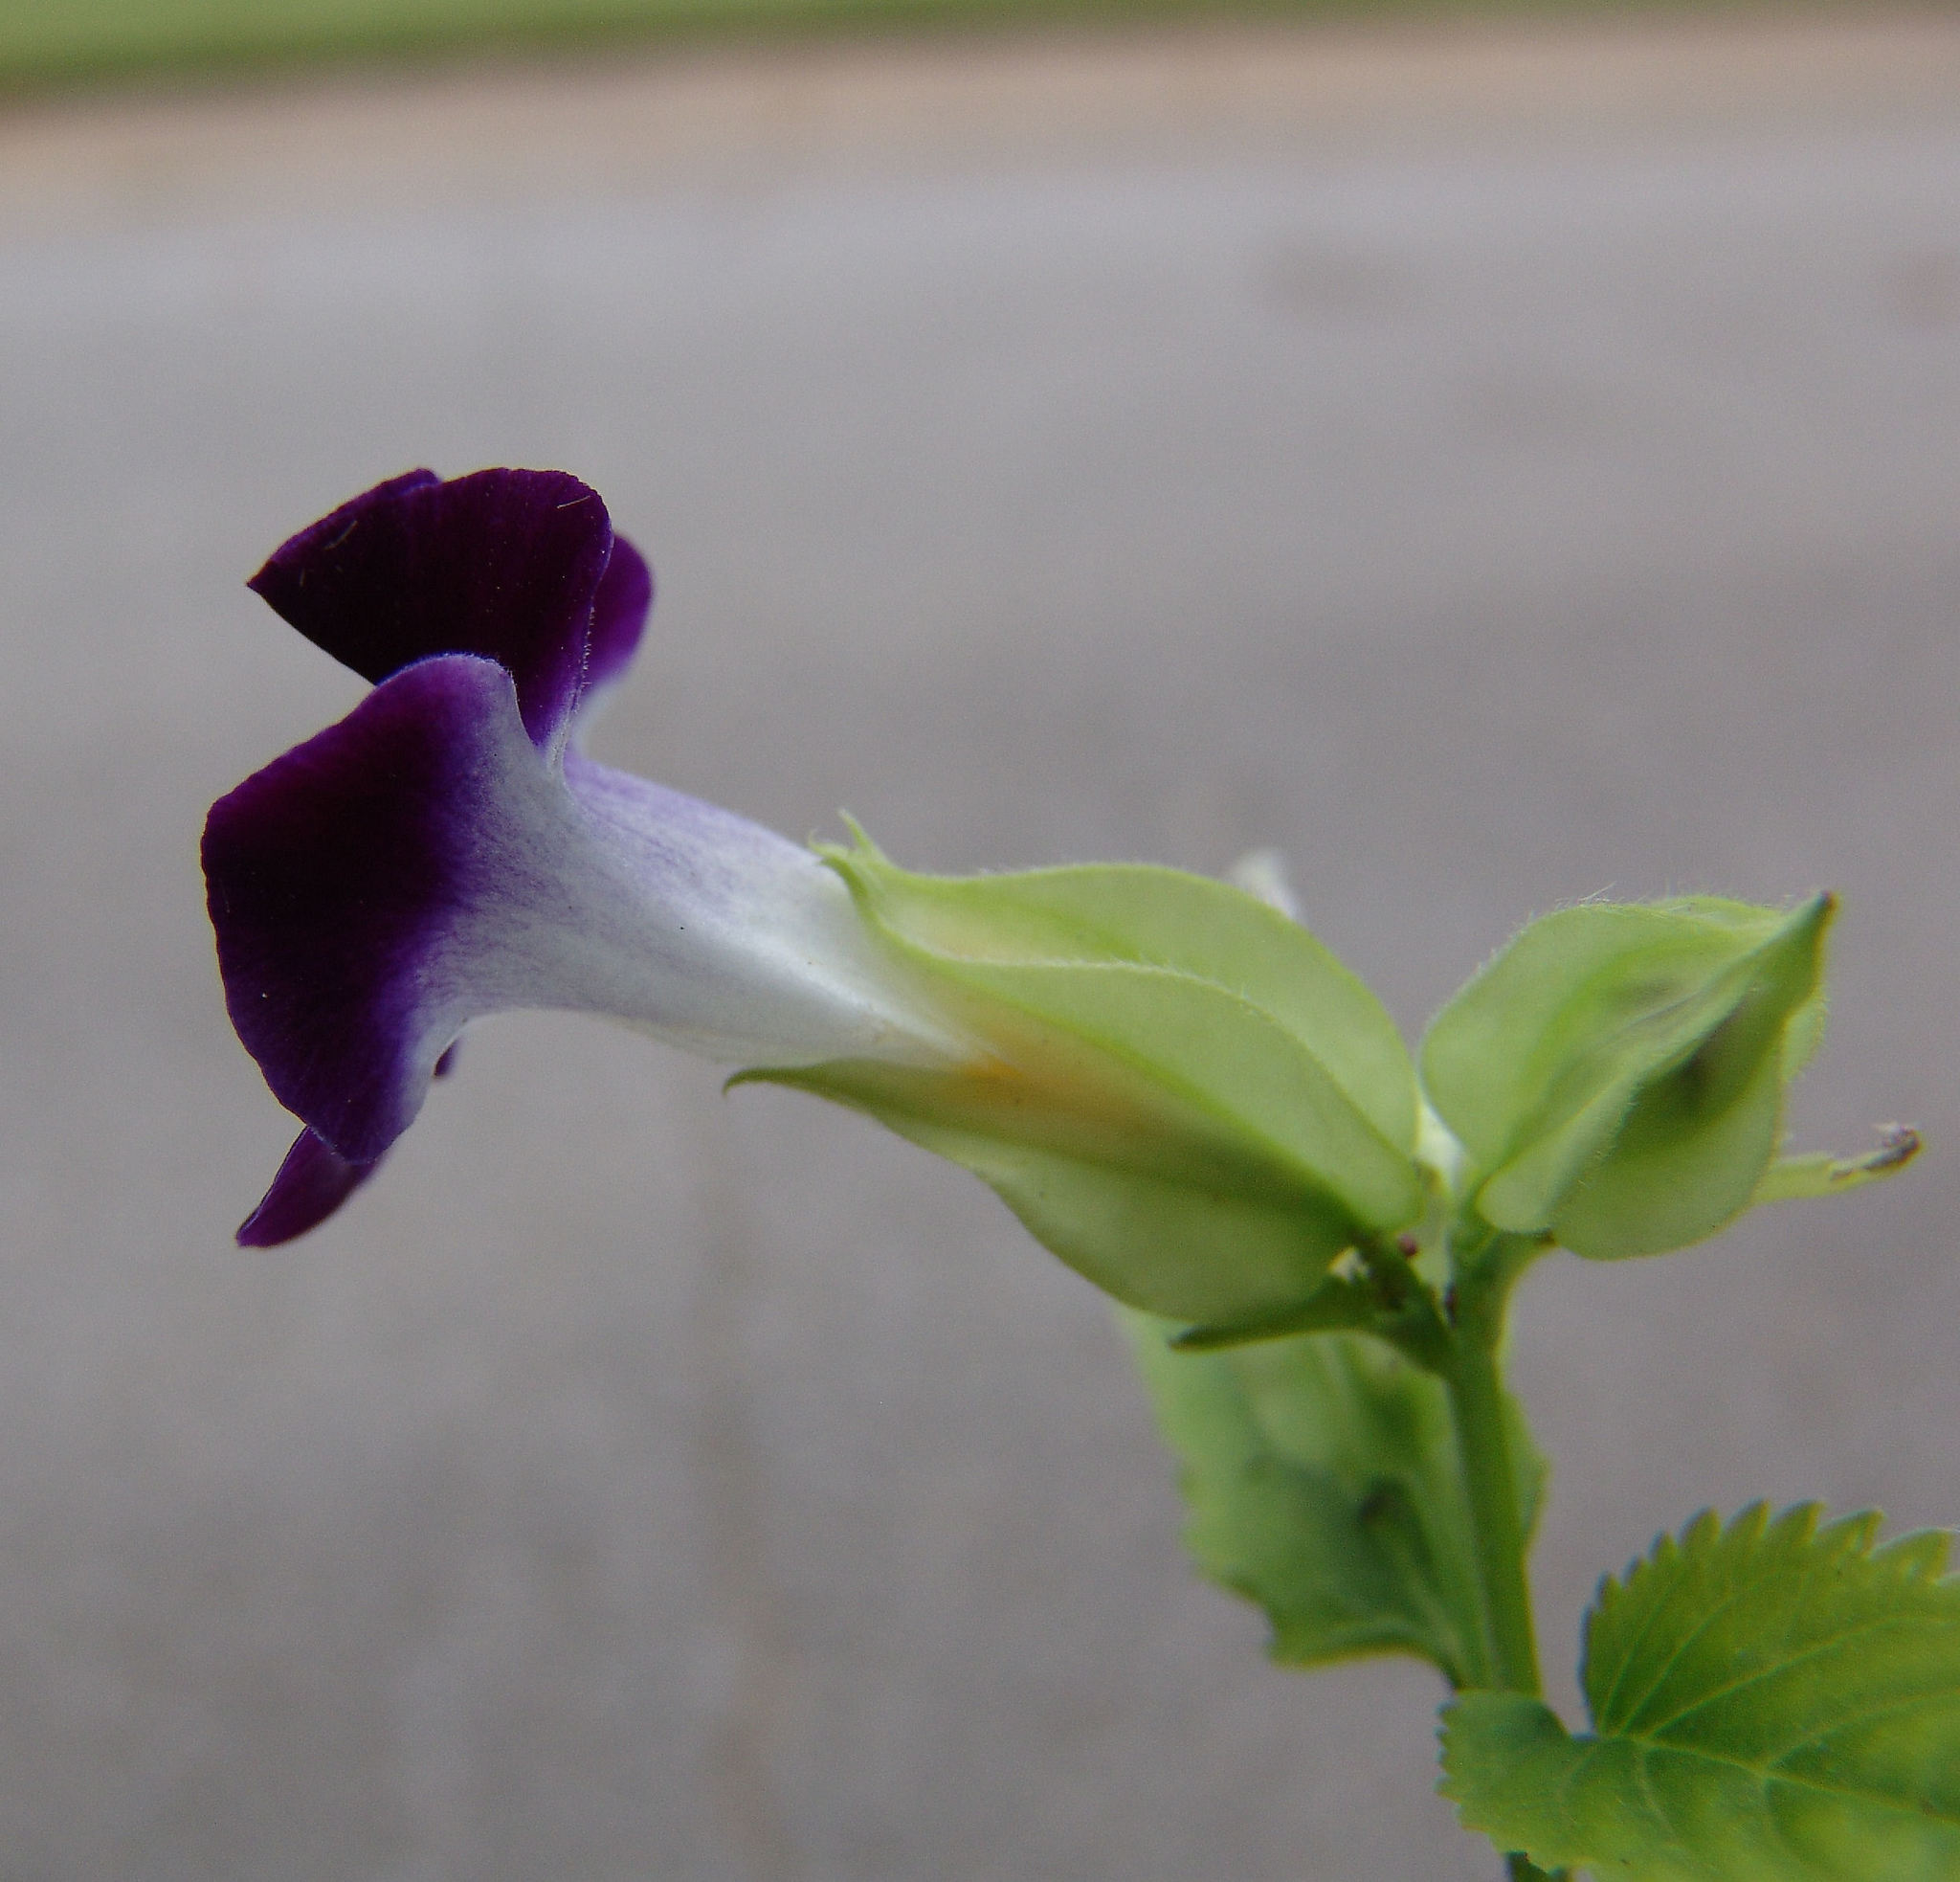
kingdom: Plantae
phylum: Tracheophyta
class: Magnoliopsida
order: Lamiales
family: Linderniaceae
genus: Torenia
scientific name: Torenia fournieri
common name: Bluewings
